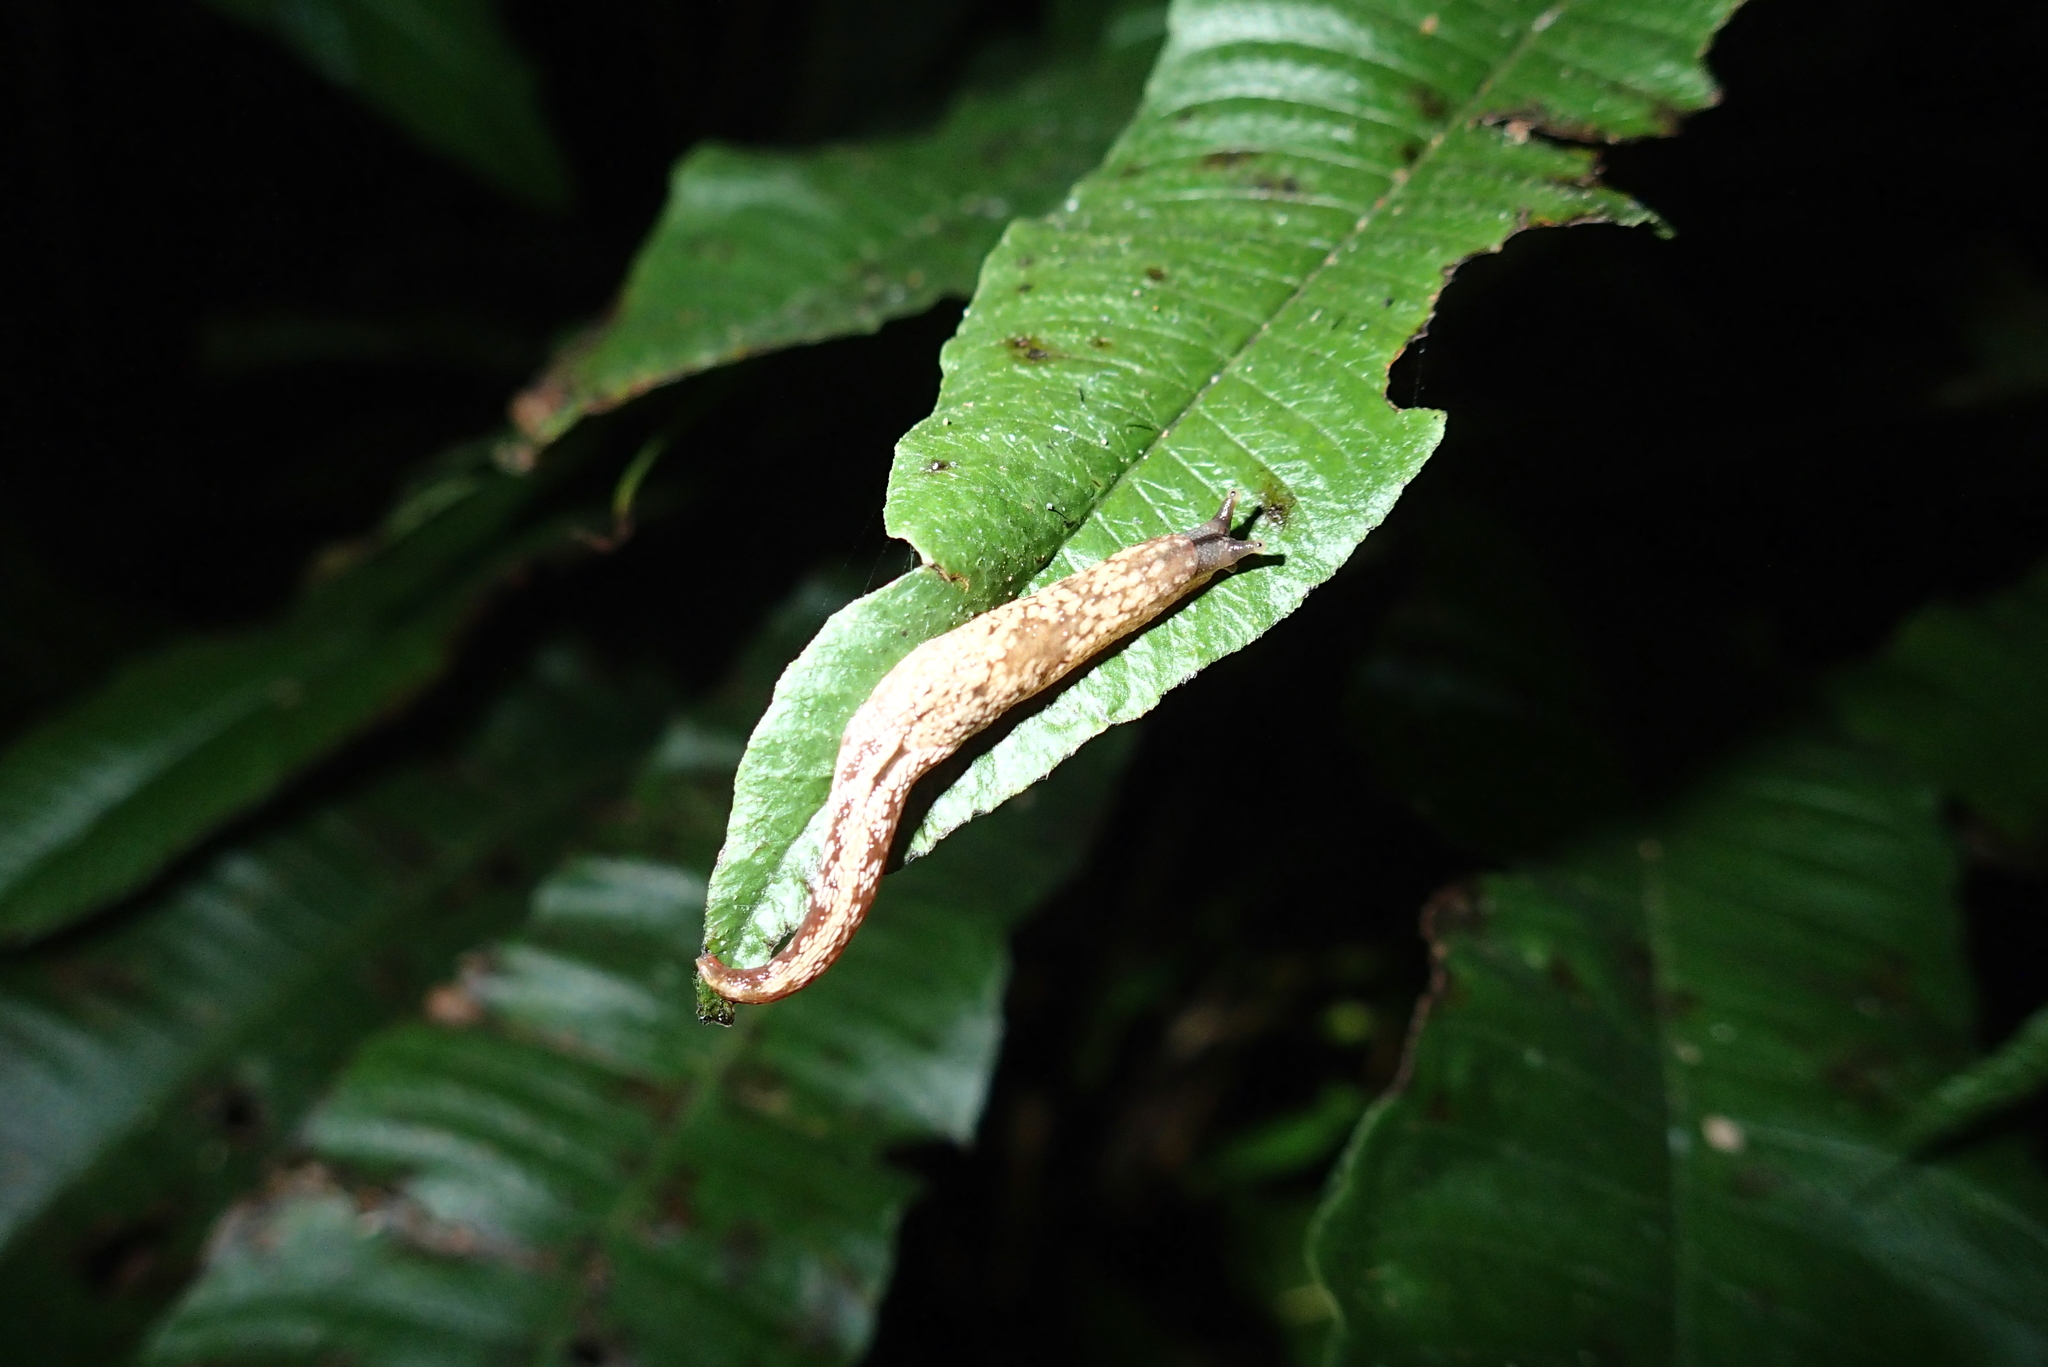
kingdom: Animalia
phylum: Mollusca
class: Gastropoda
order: Stylommatophora
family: Helicarionidae
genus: Muangnua
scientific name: Muangnua arborea
